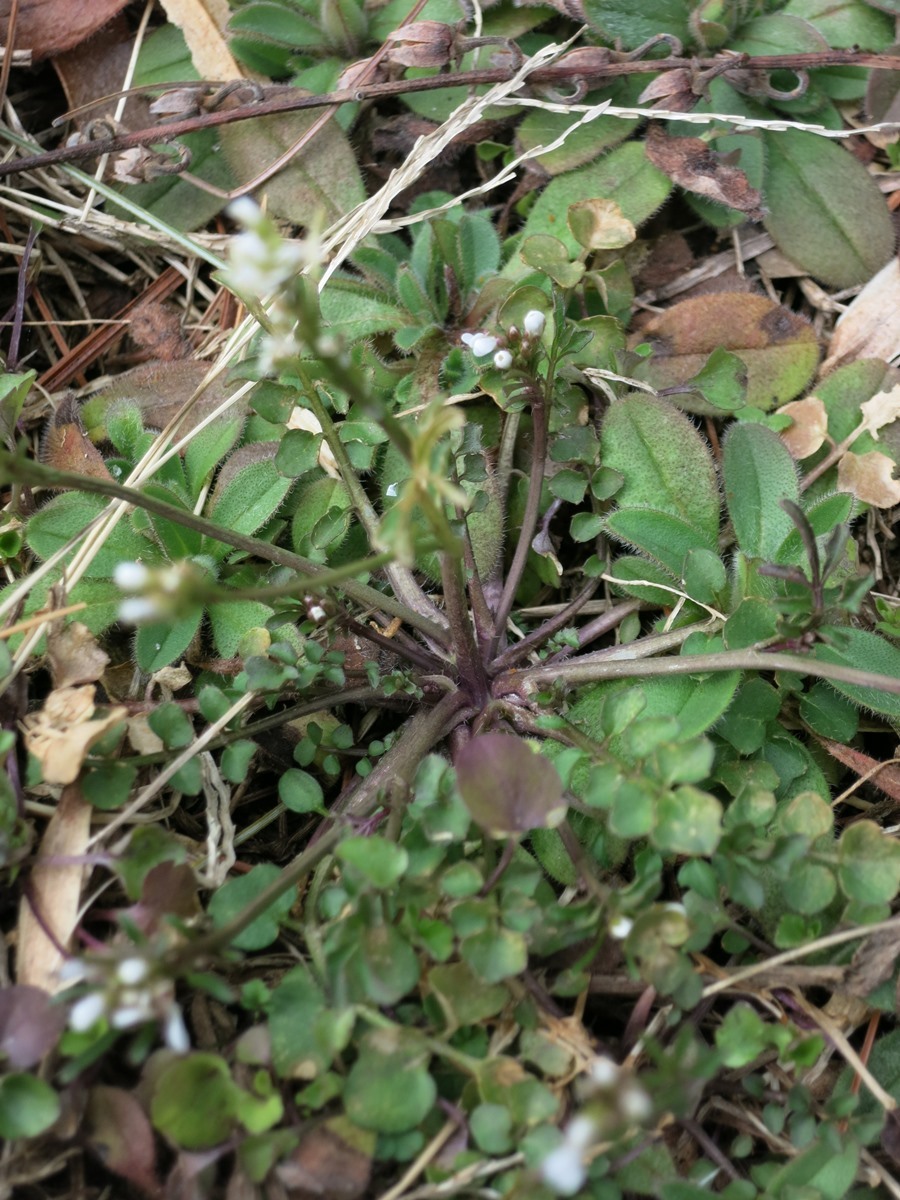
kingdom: Plantae
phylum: Tracheophyta
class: Magnoliopsida
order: Brassicales
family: Brassicaceae
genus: Cardamine
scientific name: Cardamine hirsuta
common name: Hairy bittercress
